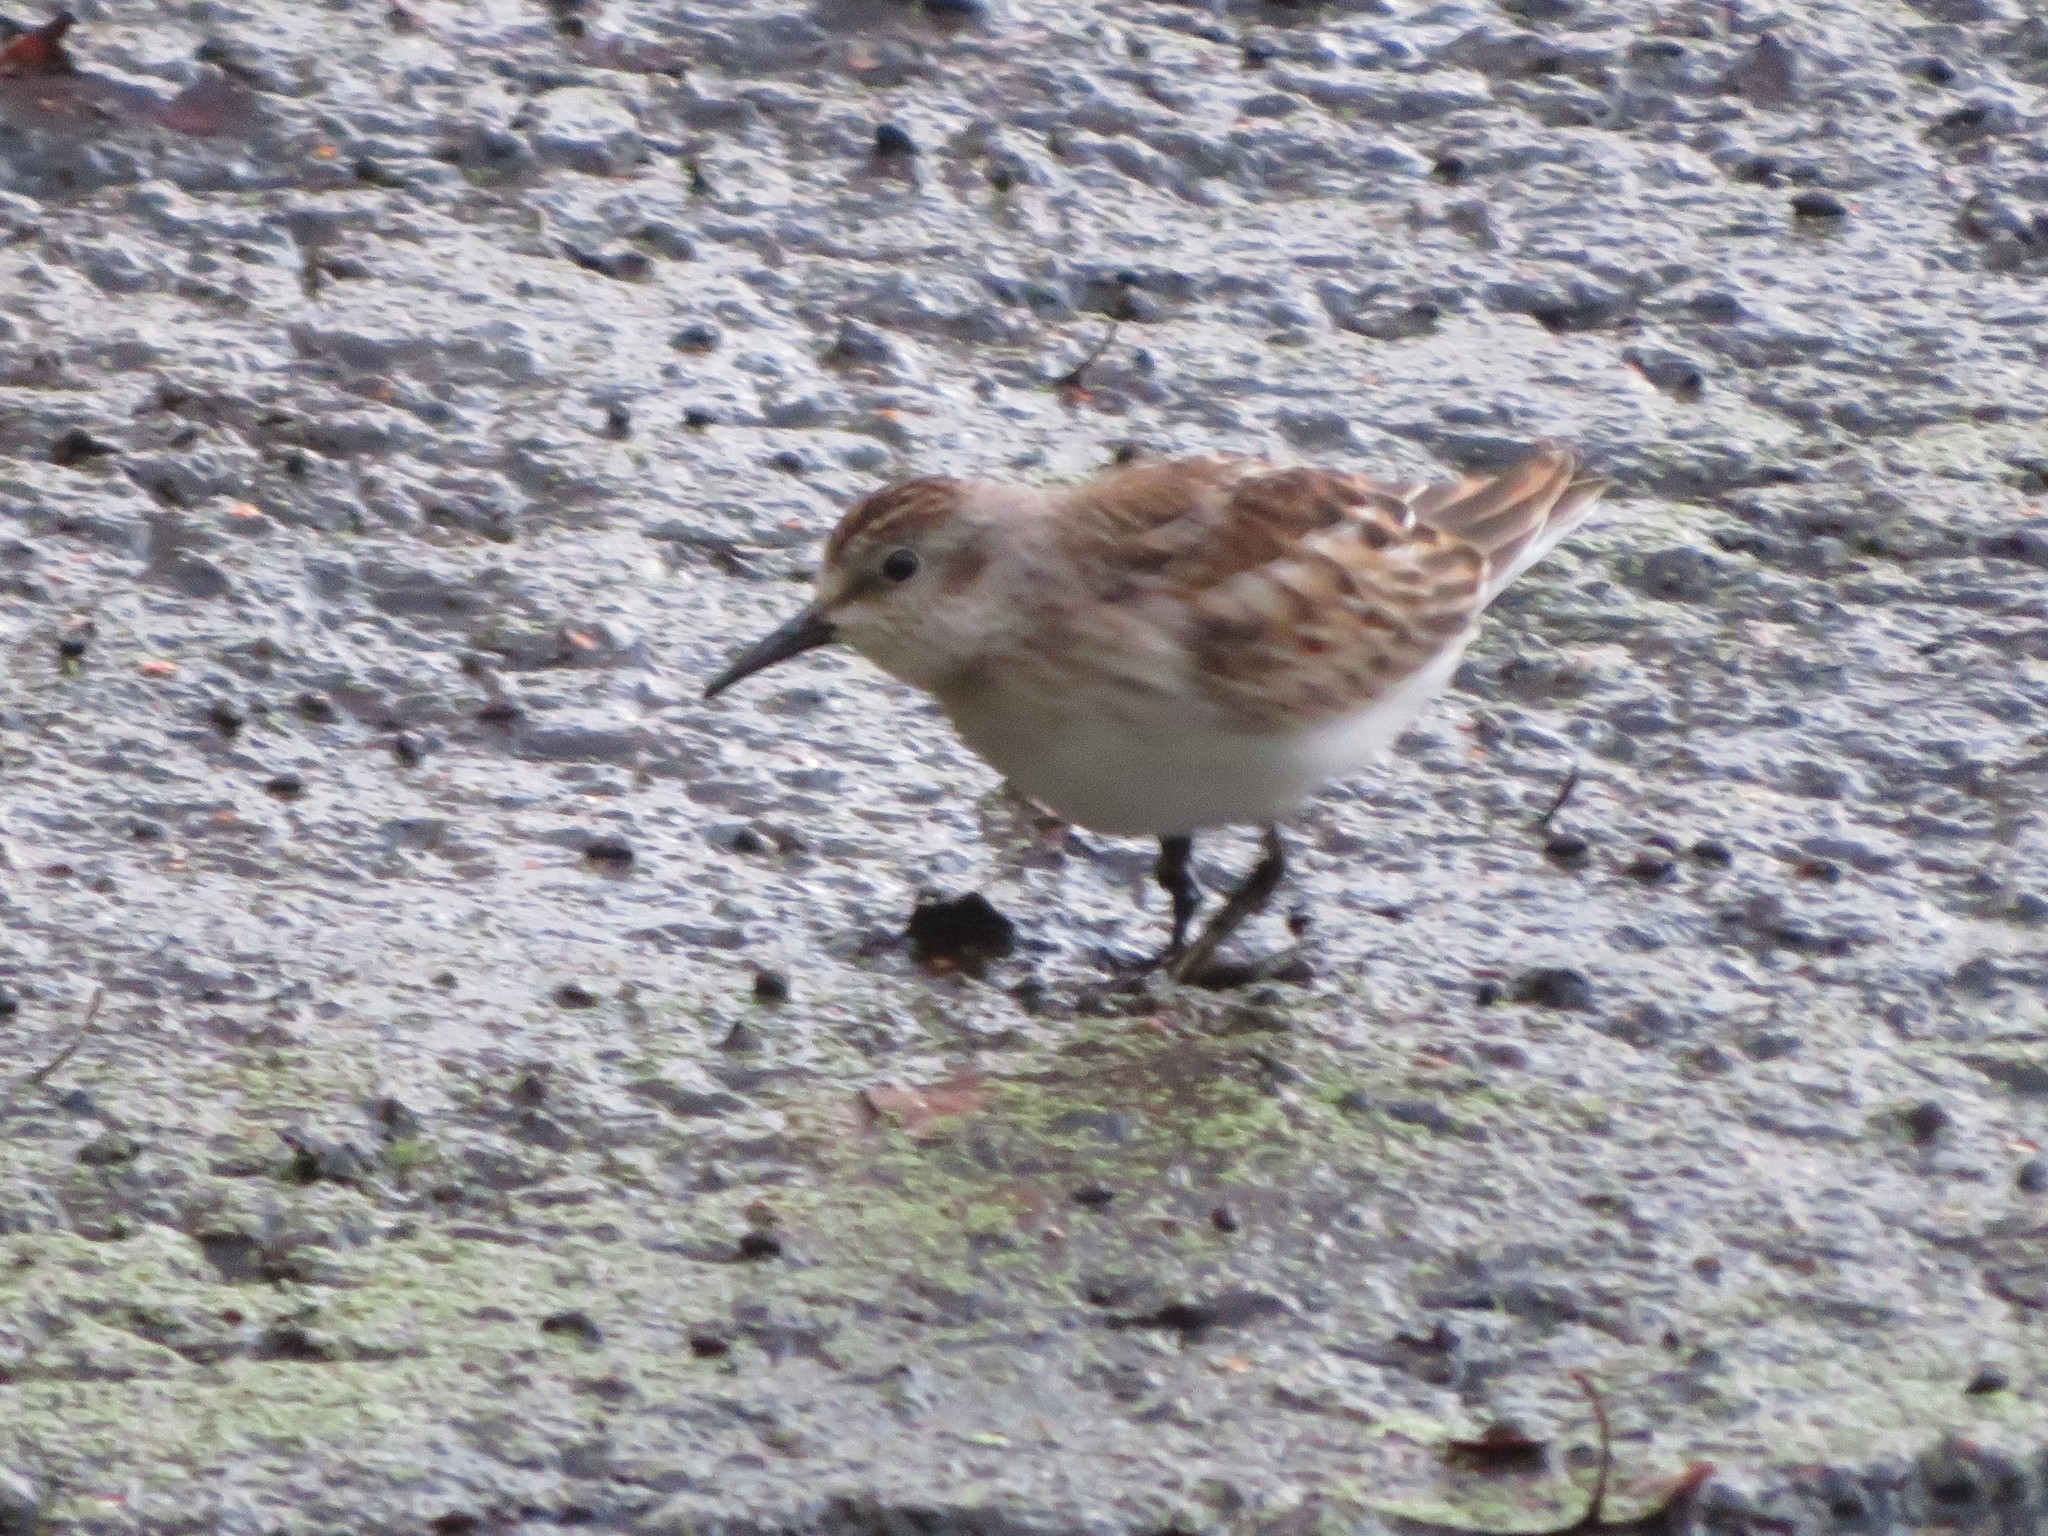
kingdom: Animalia
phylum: Chordata
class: Aves
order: Charadriiformes
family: Scolopacidae
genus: Calidris
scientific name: Calidris minutilla
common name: Least sandpiper
